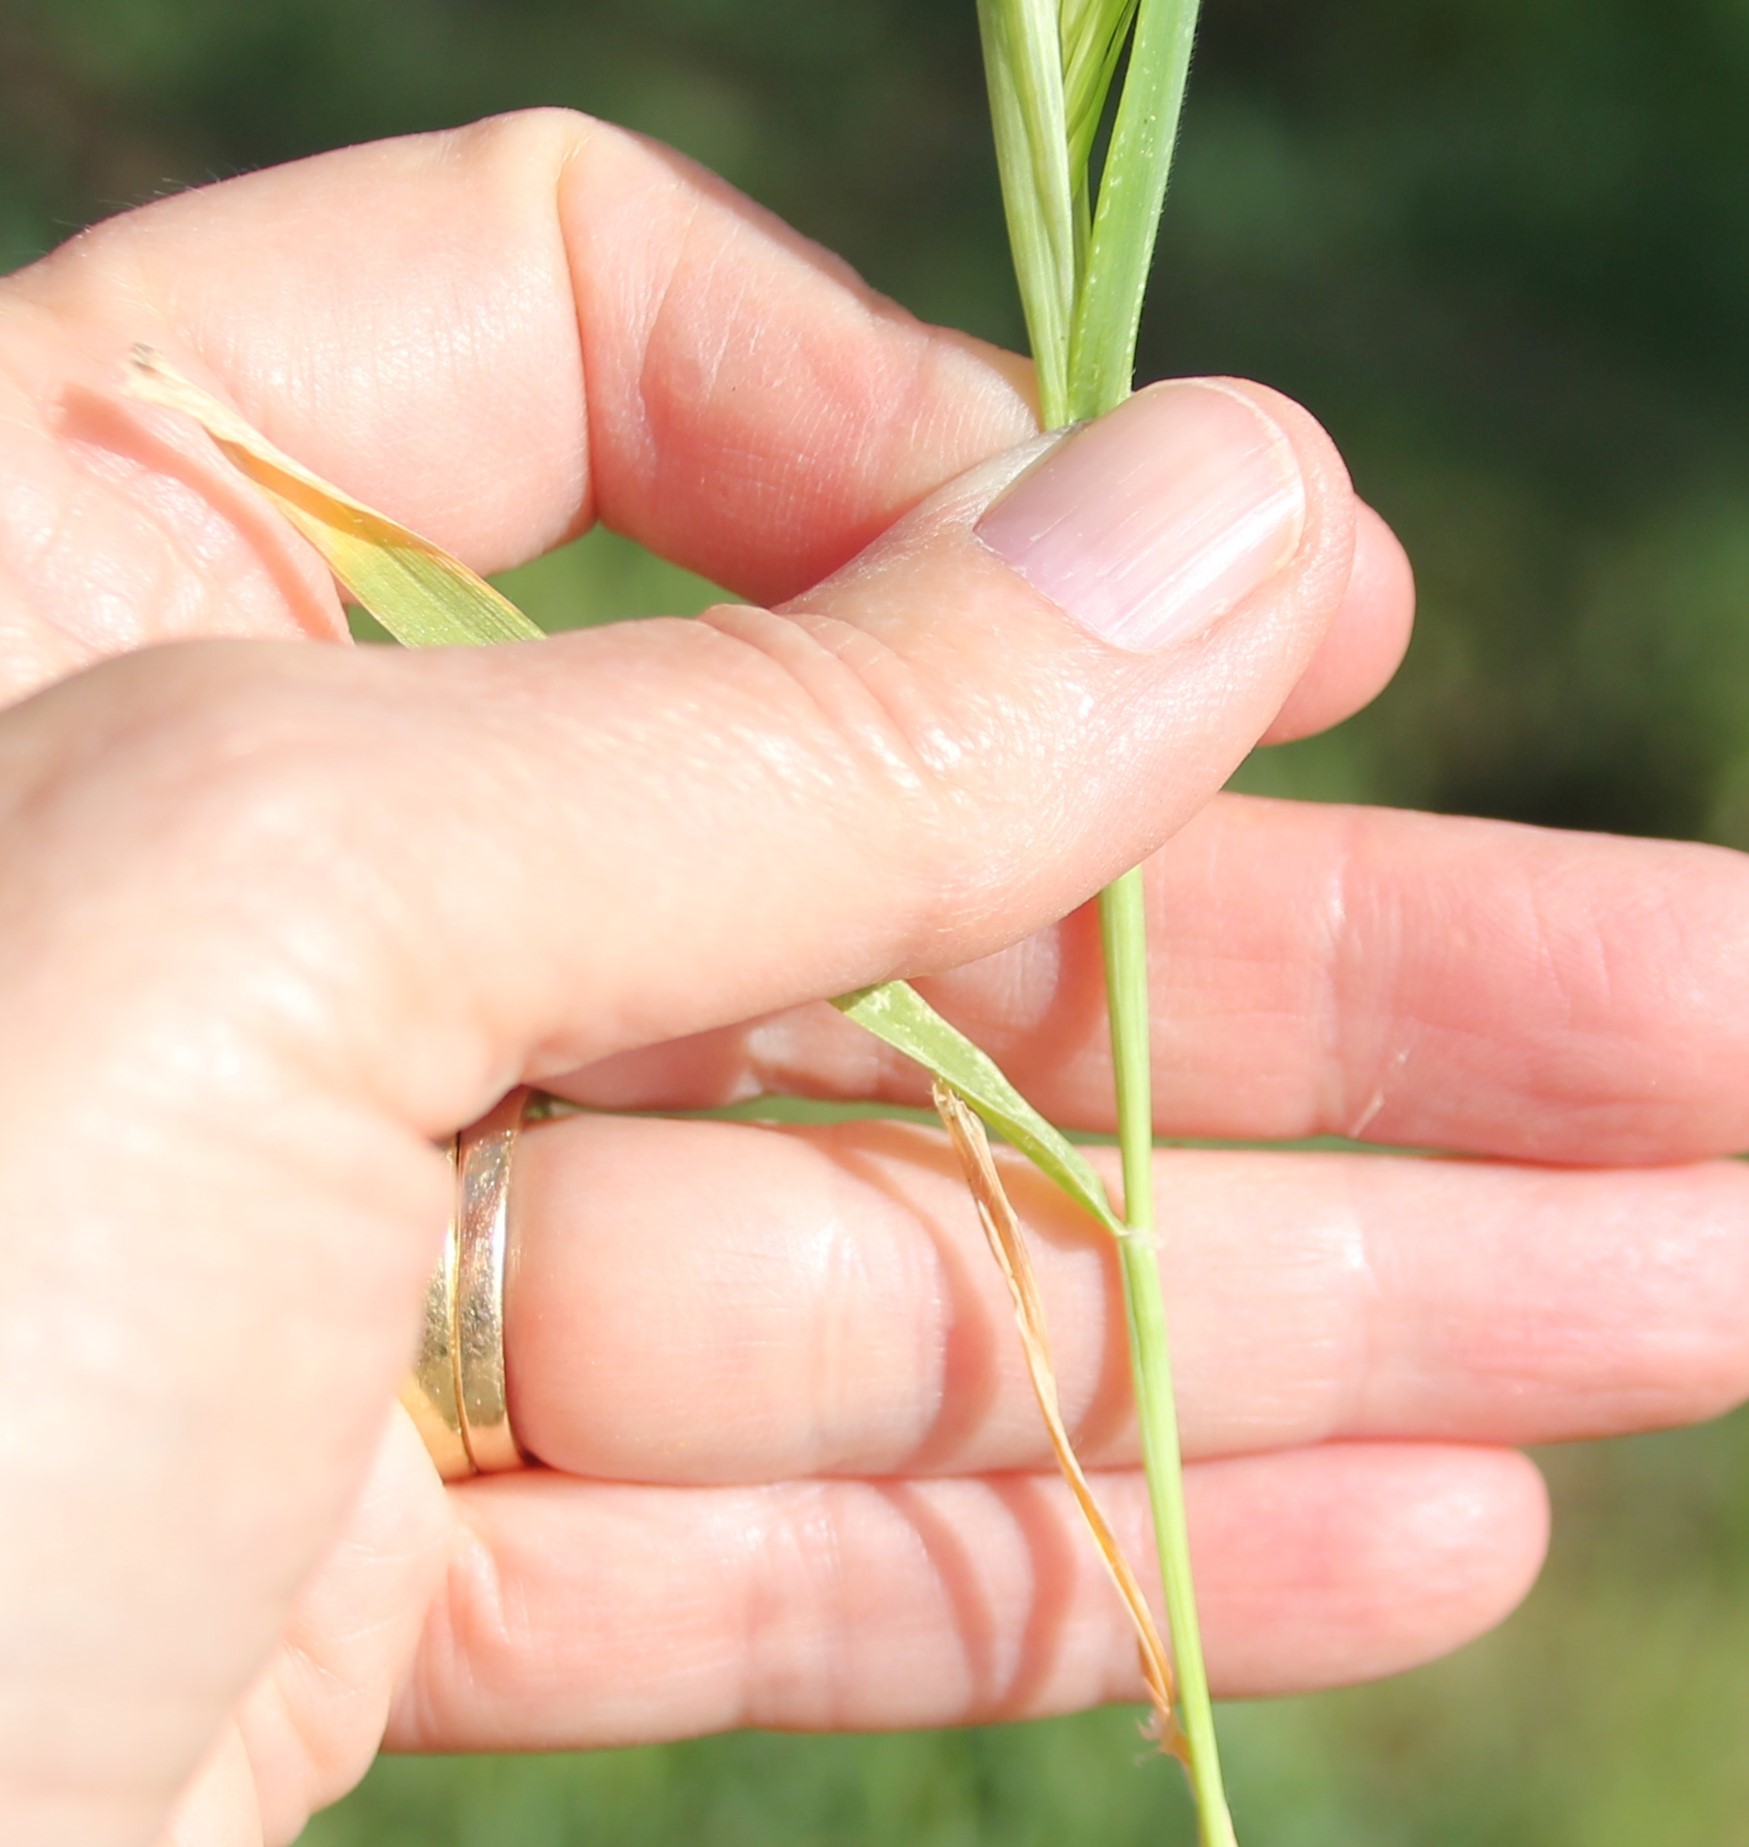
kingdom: Plantae
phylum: Tracheophyta
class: Liliopsida
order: Poales
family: Poaceae
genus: Hordeum
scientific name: Hordeum murinum
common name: Wall barley
